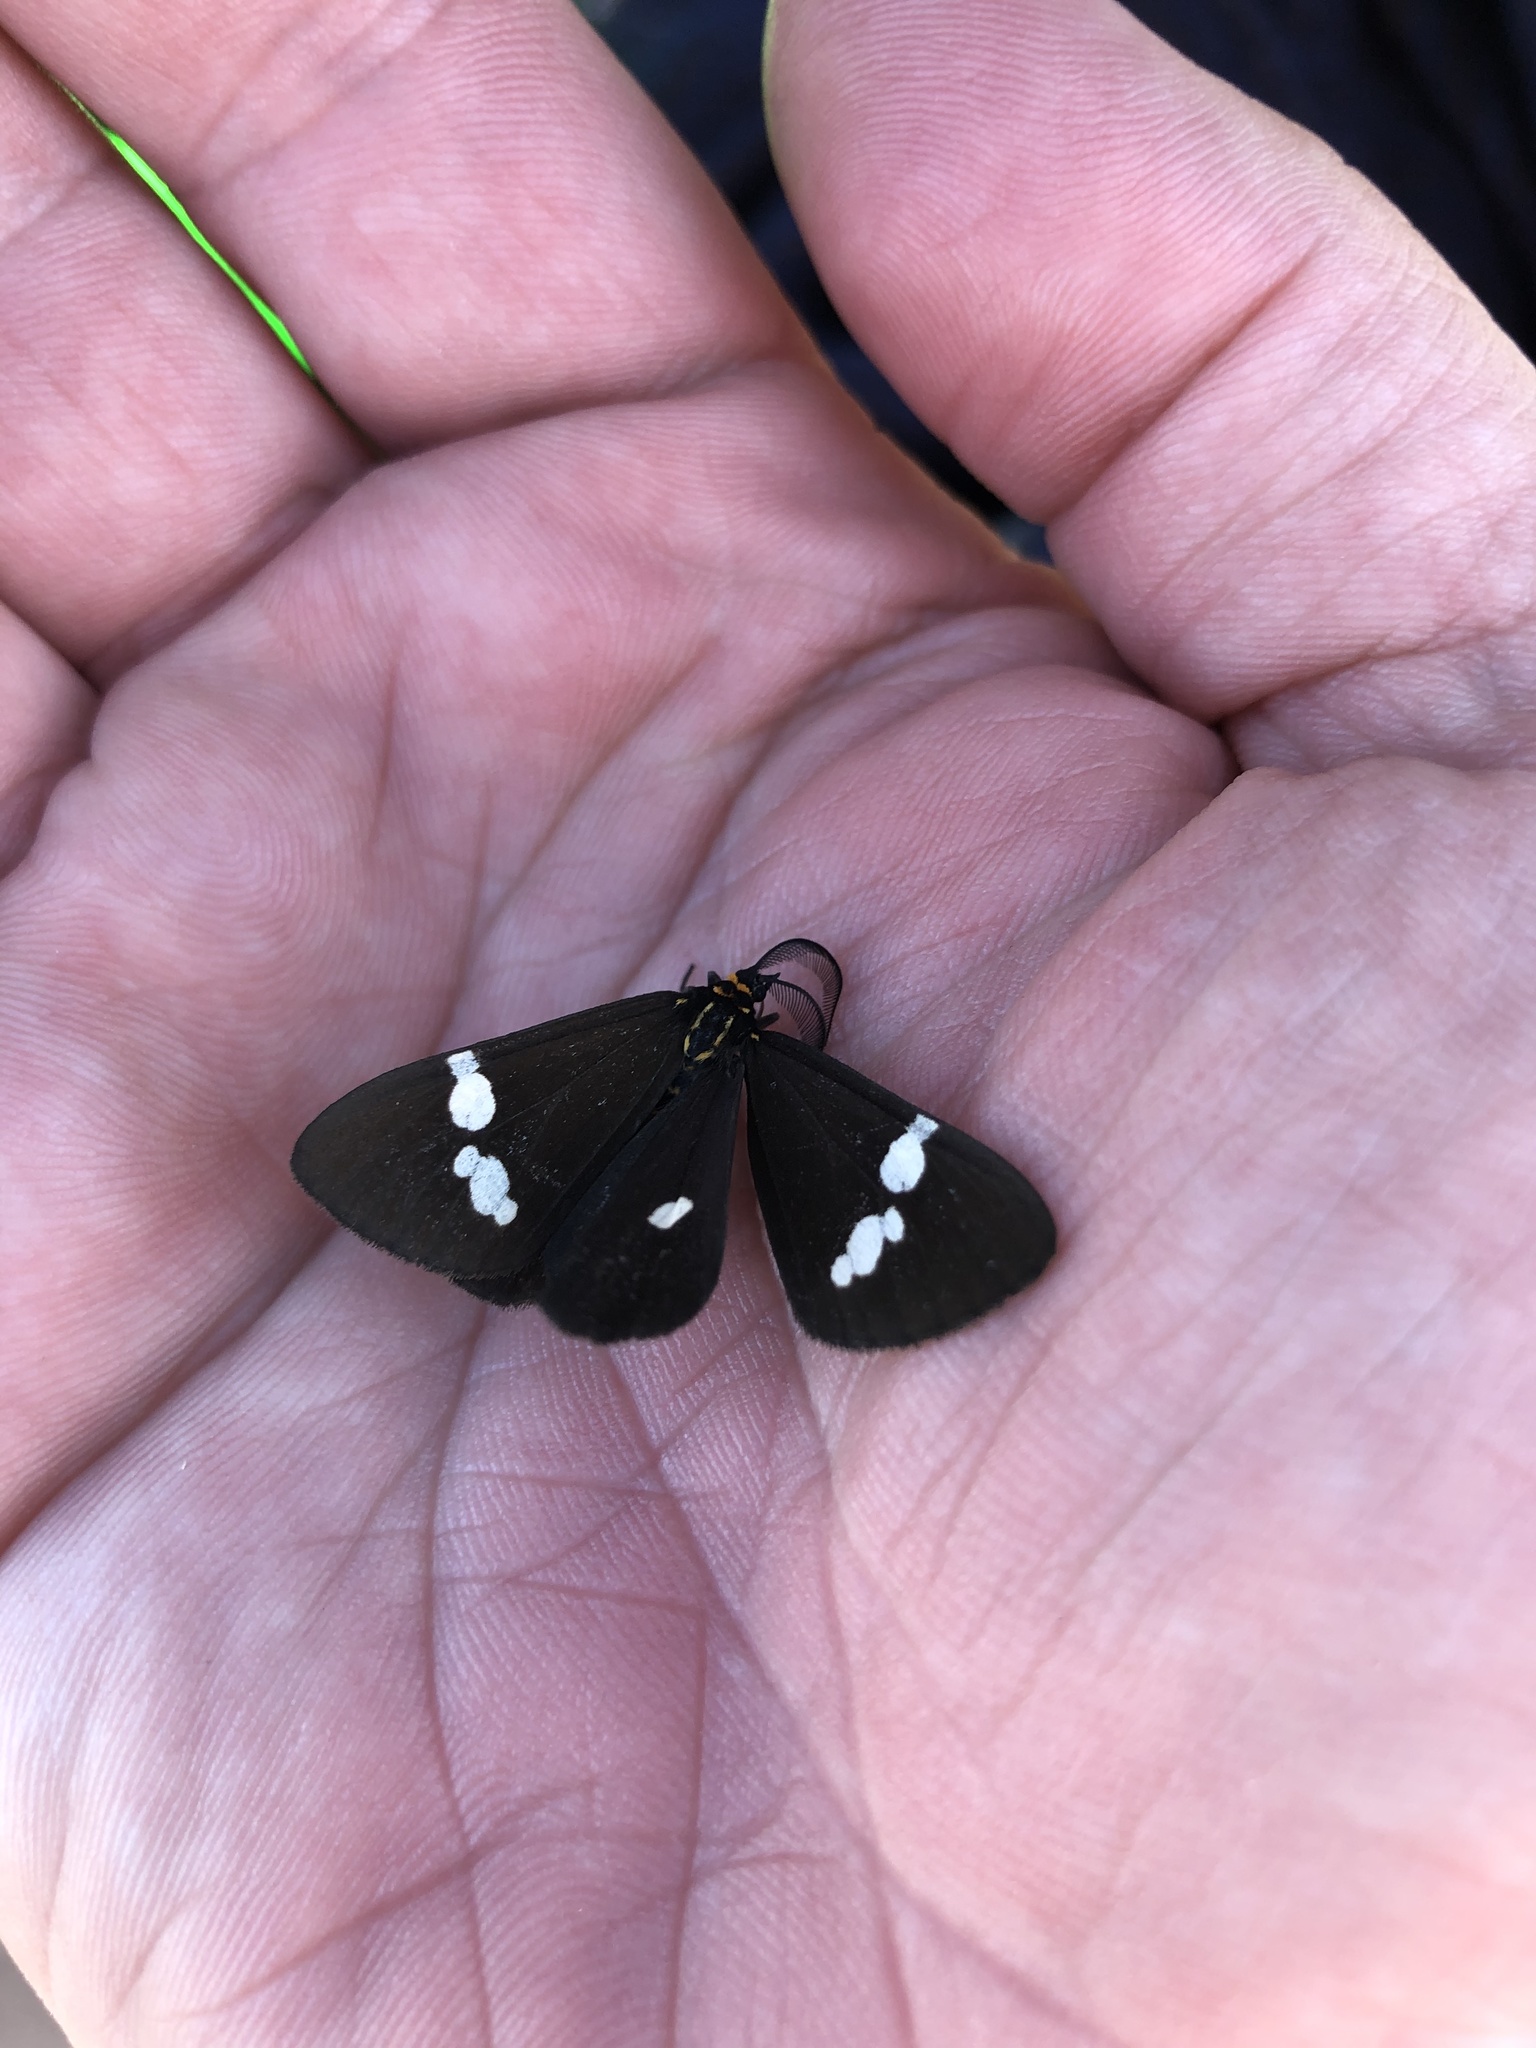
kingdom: Animalia
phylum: Arthropoda
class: Insecta
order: Lepidoptera
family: Erebidae
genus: Nyctemera
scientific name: Nyctemera annulatum
